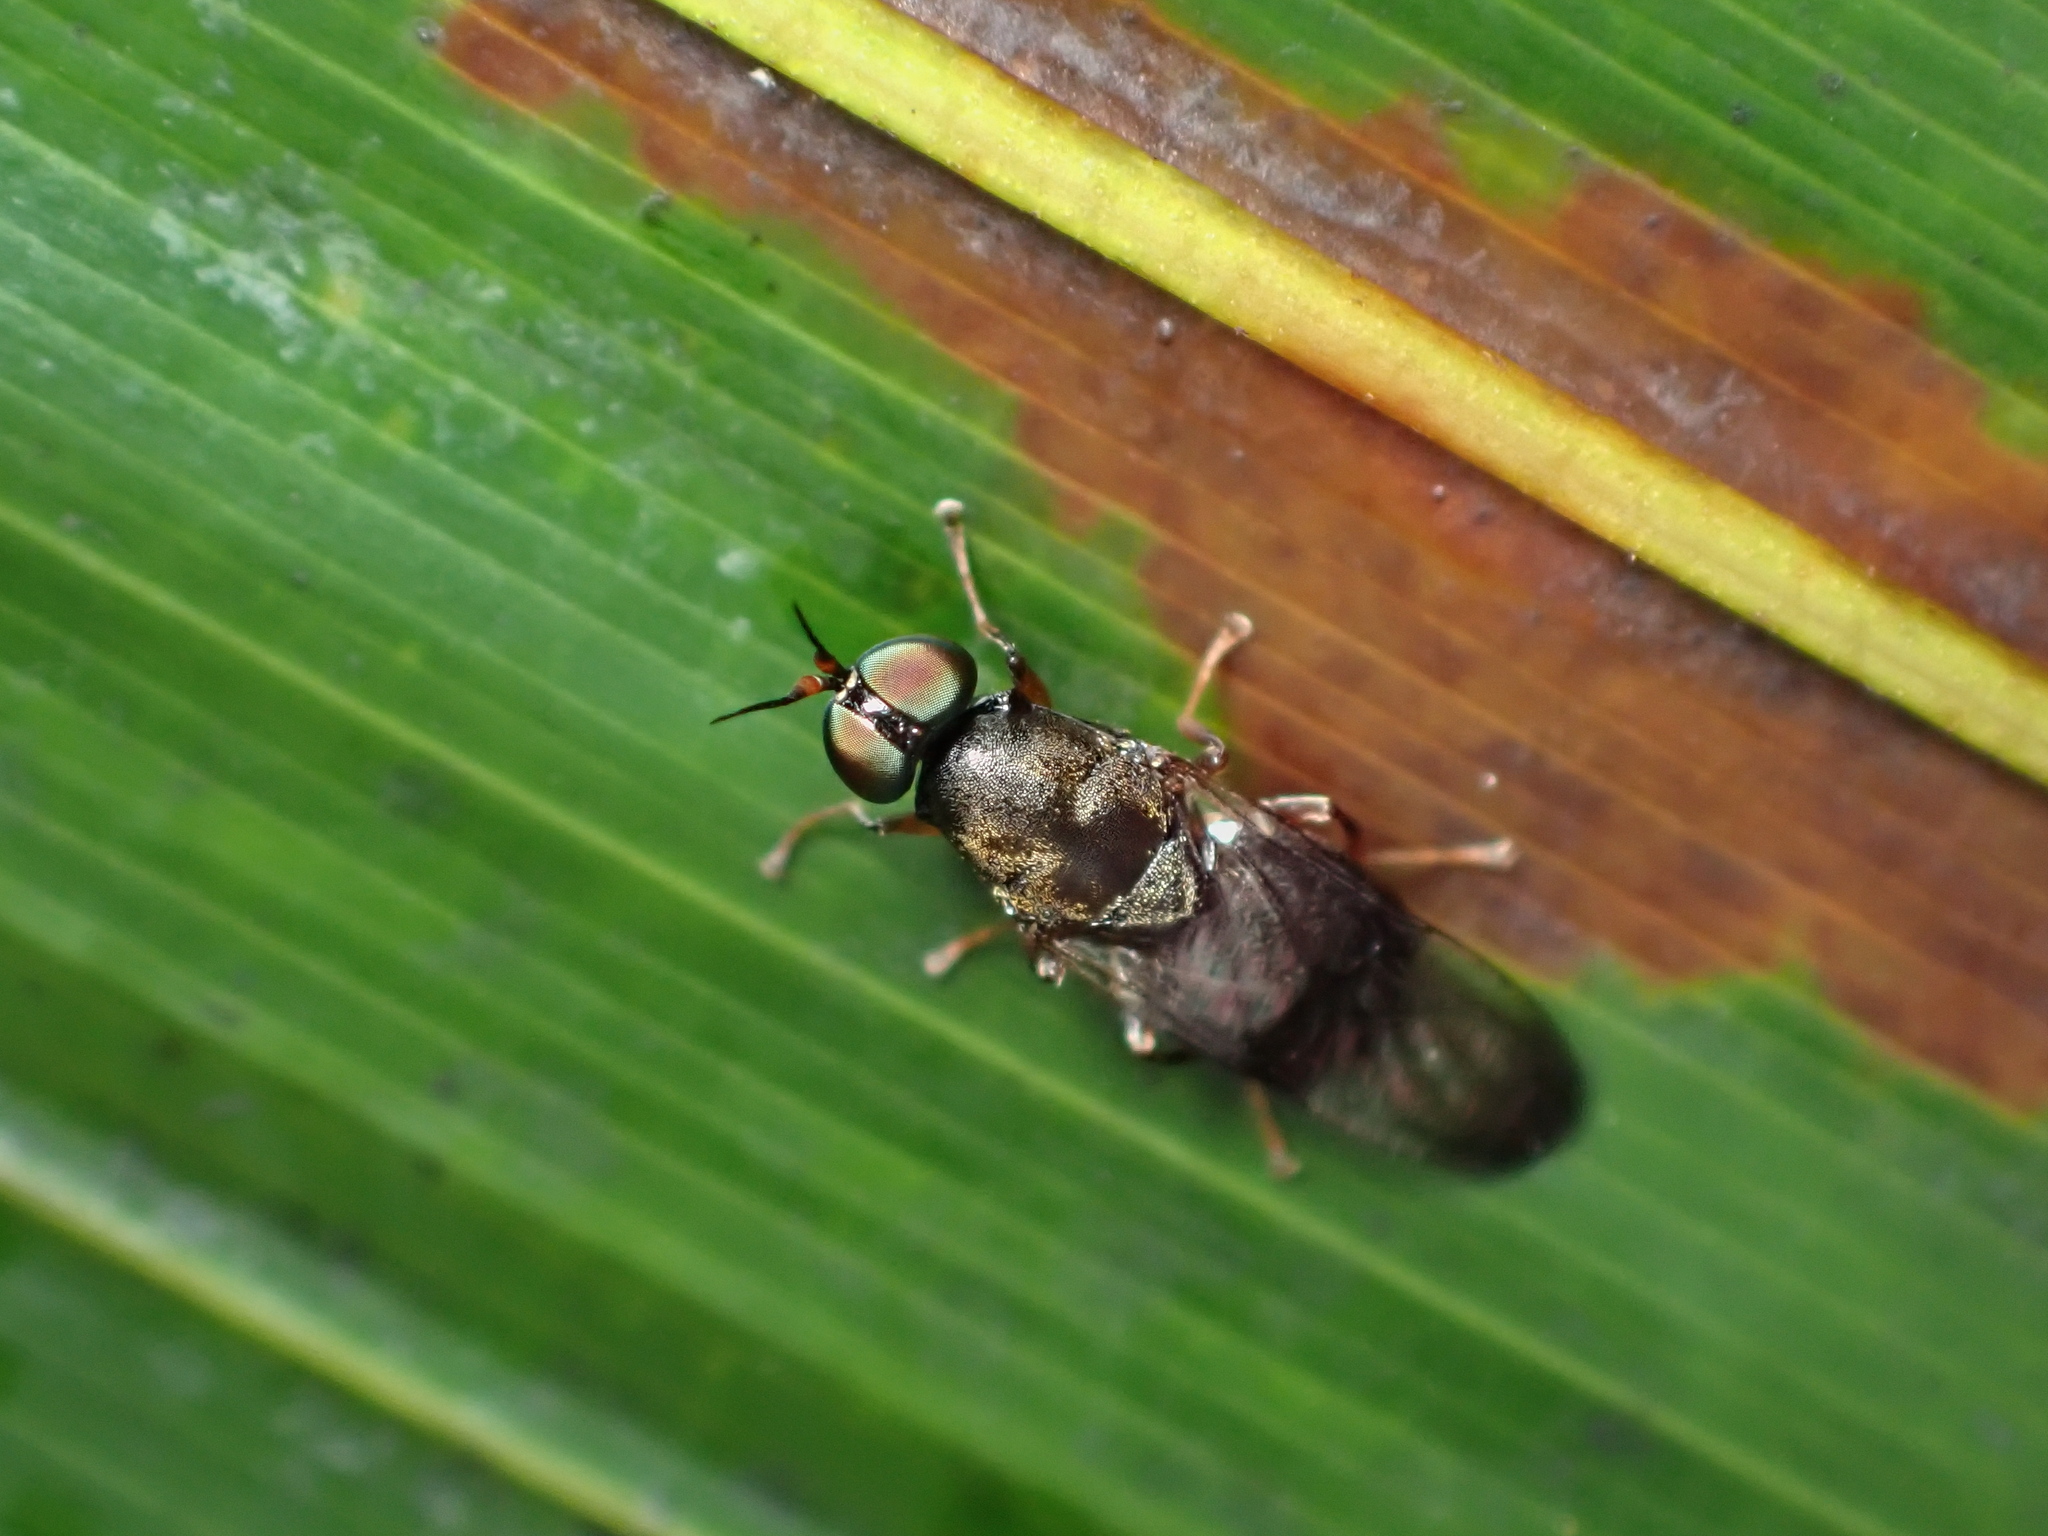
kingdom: Animalia
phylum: Arthropoda
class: Insecta
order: Diptera
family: Stratiomyidae
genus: Dysbiota
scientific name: Dysbiota peregrina
